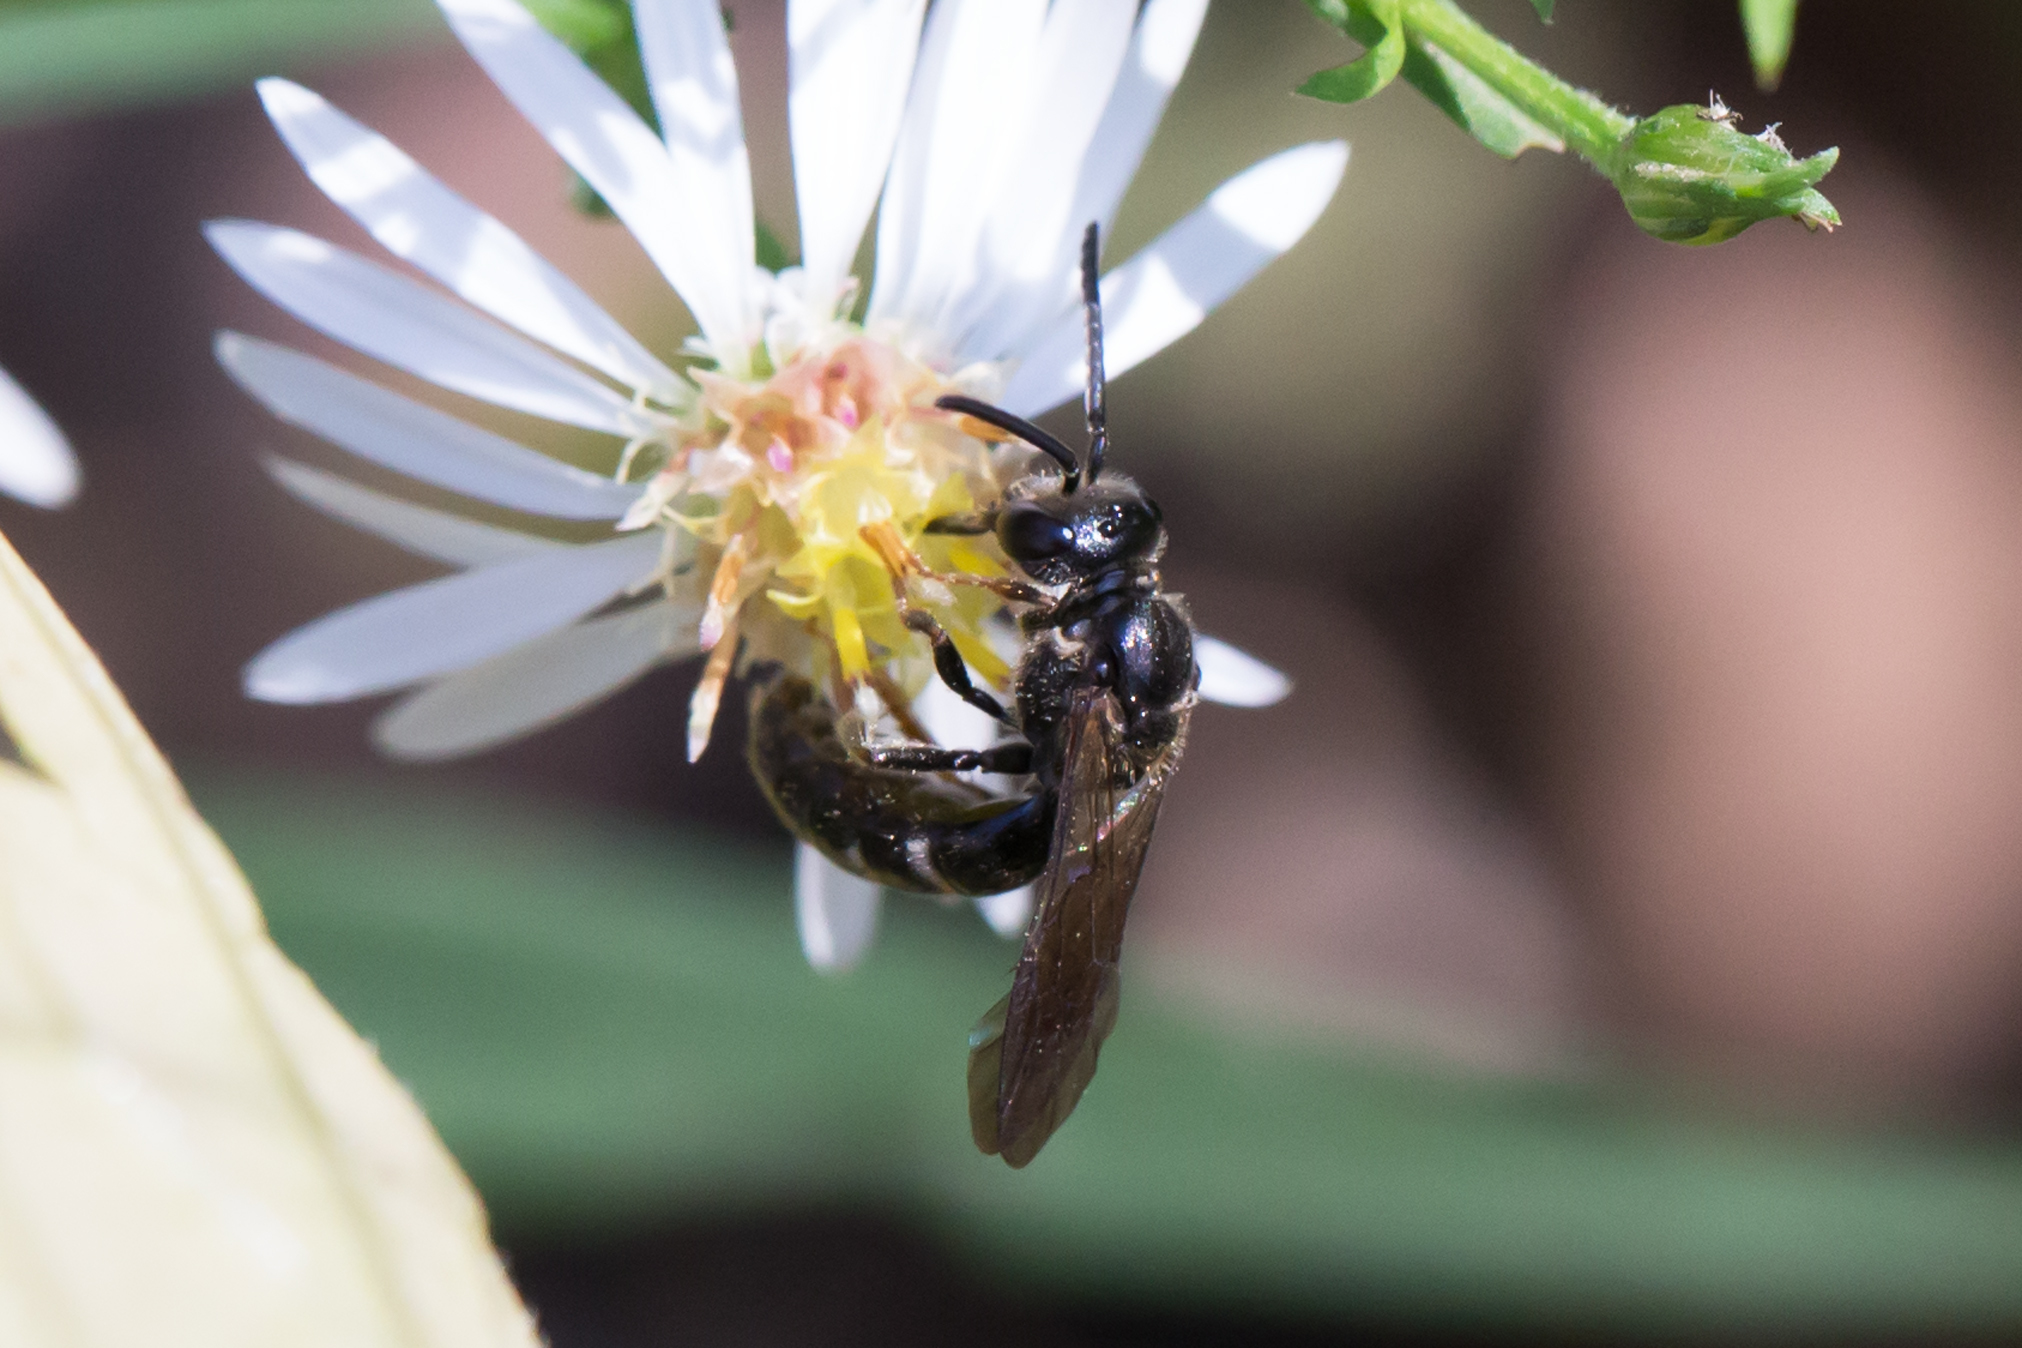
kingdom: Animalia
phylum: Arthropoda
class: Insecta
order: Hymenoptera
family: Halictidae
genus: Lasioglossum
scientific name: Lasioglossum fuscipenne
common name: Brown-winged sweat bee
